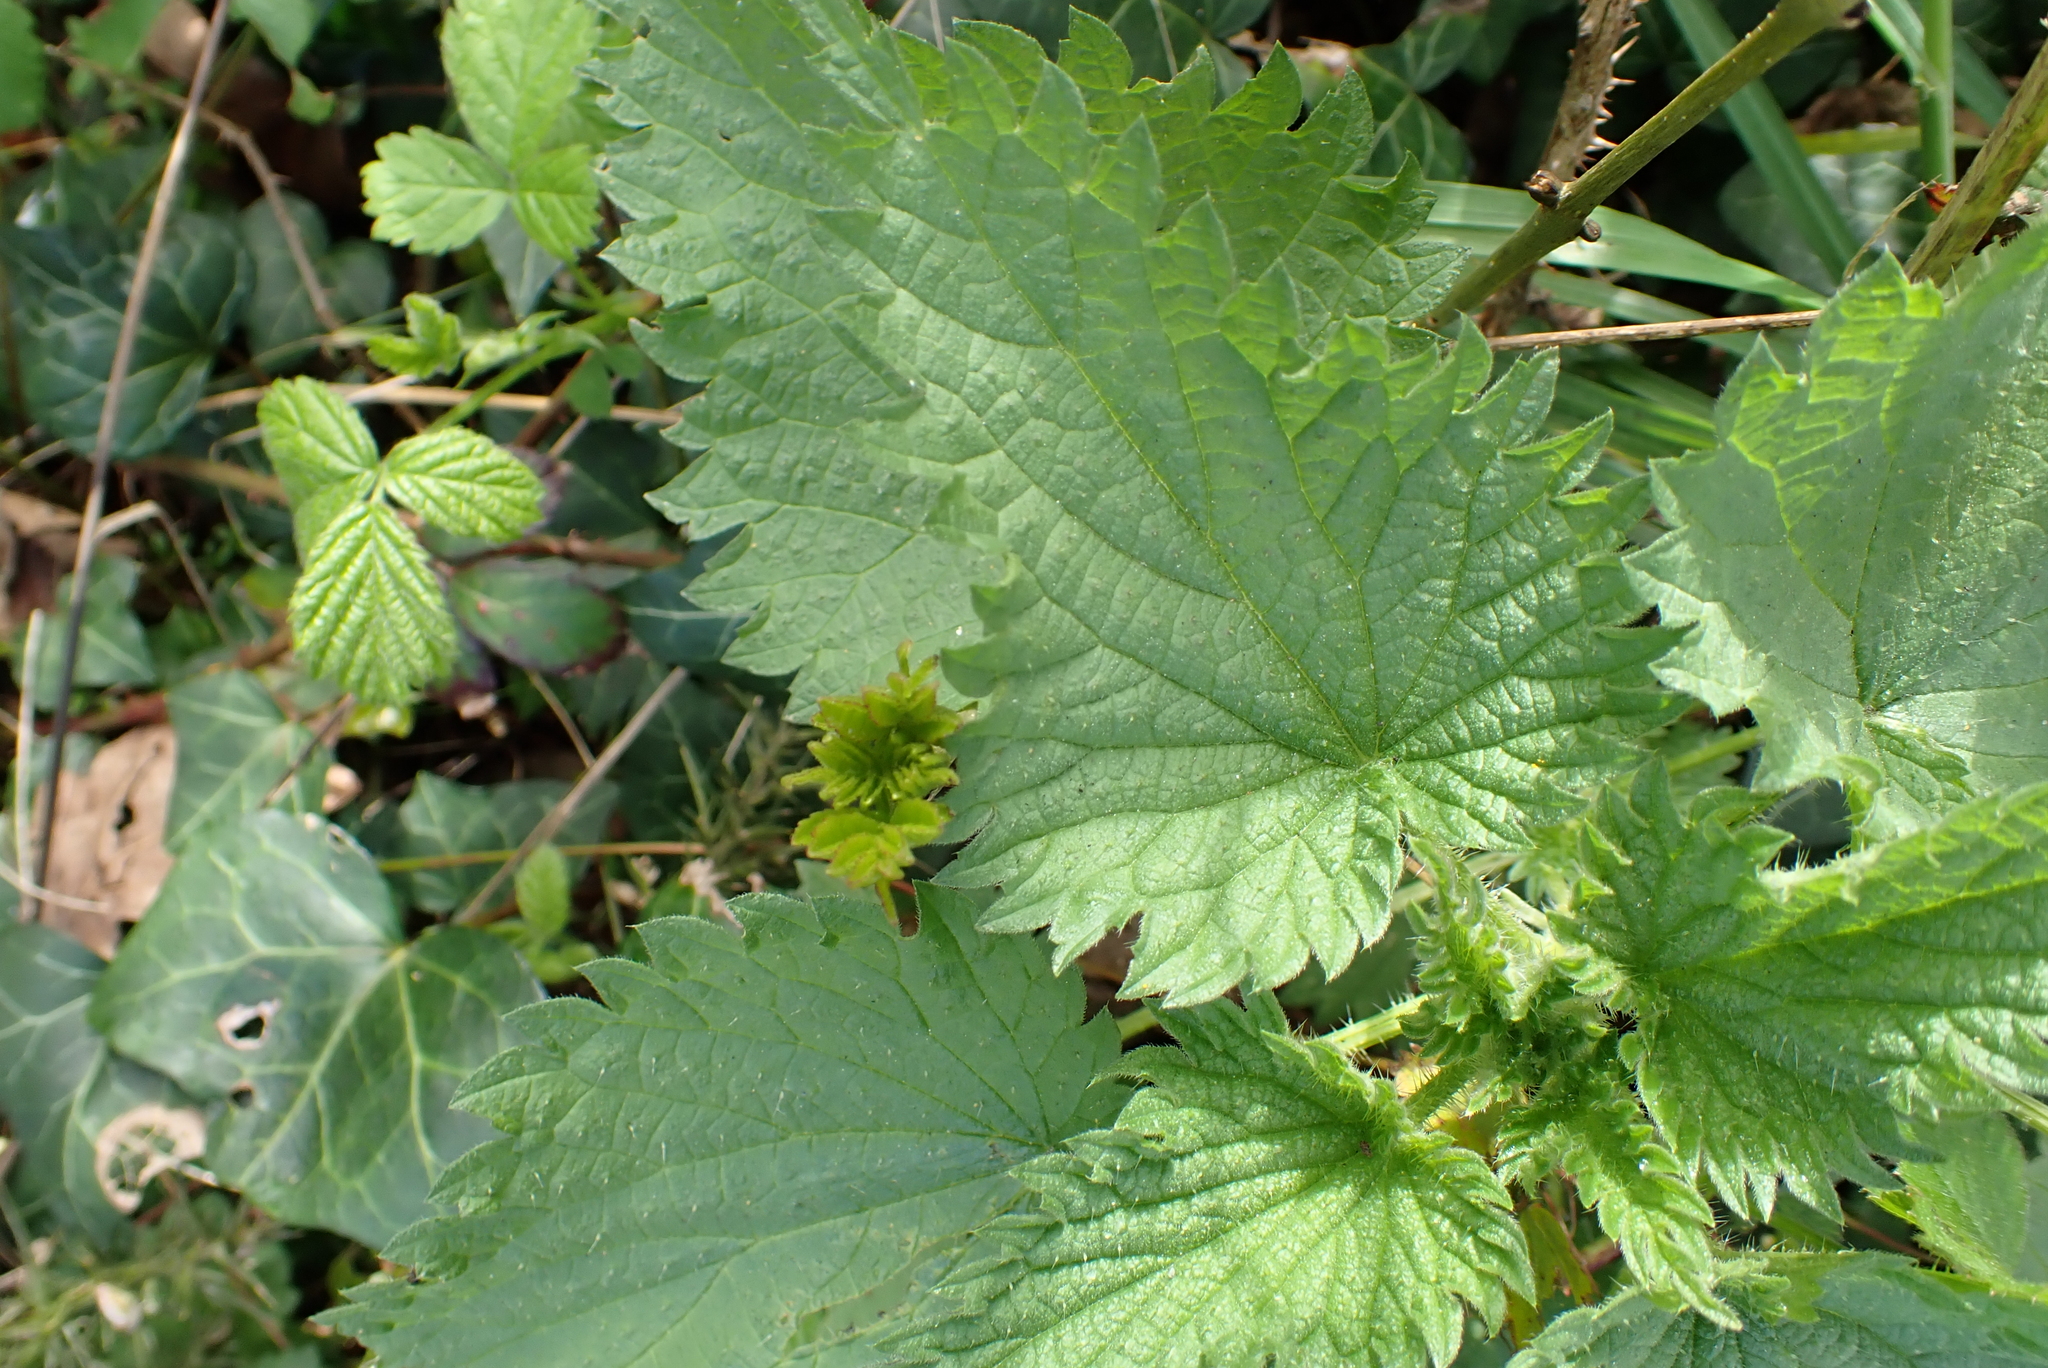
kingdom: Plantae
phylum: Tracheophyta
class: Magnoliopsida
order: Rosales
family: Urticaceae
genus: Urtica
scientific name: Urtica dioica
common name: Common nettle
